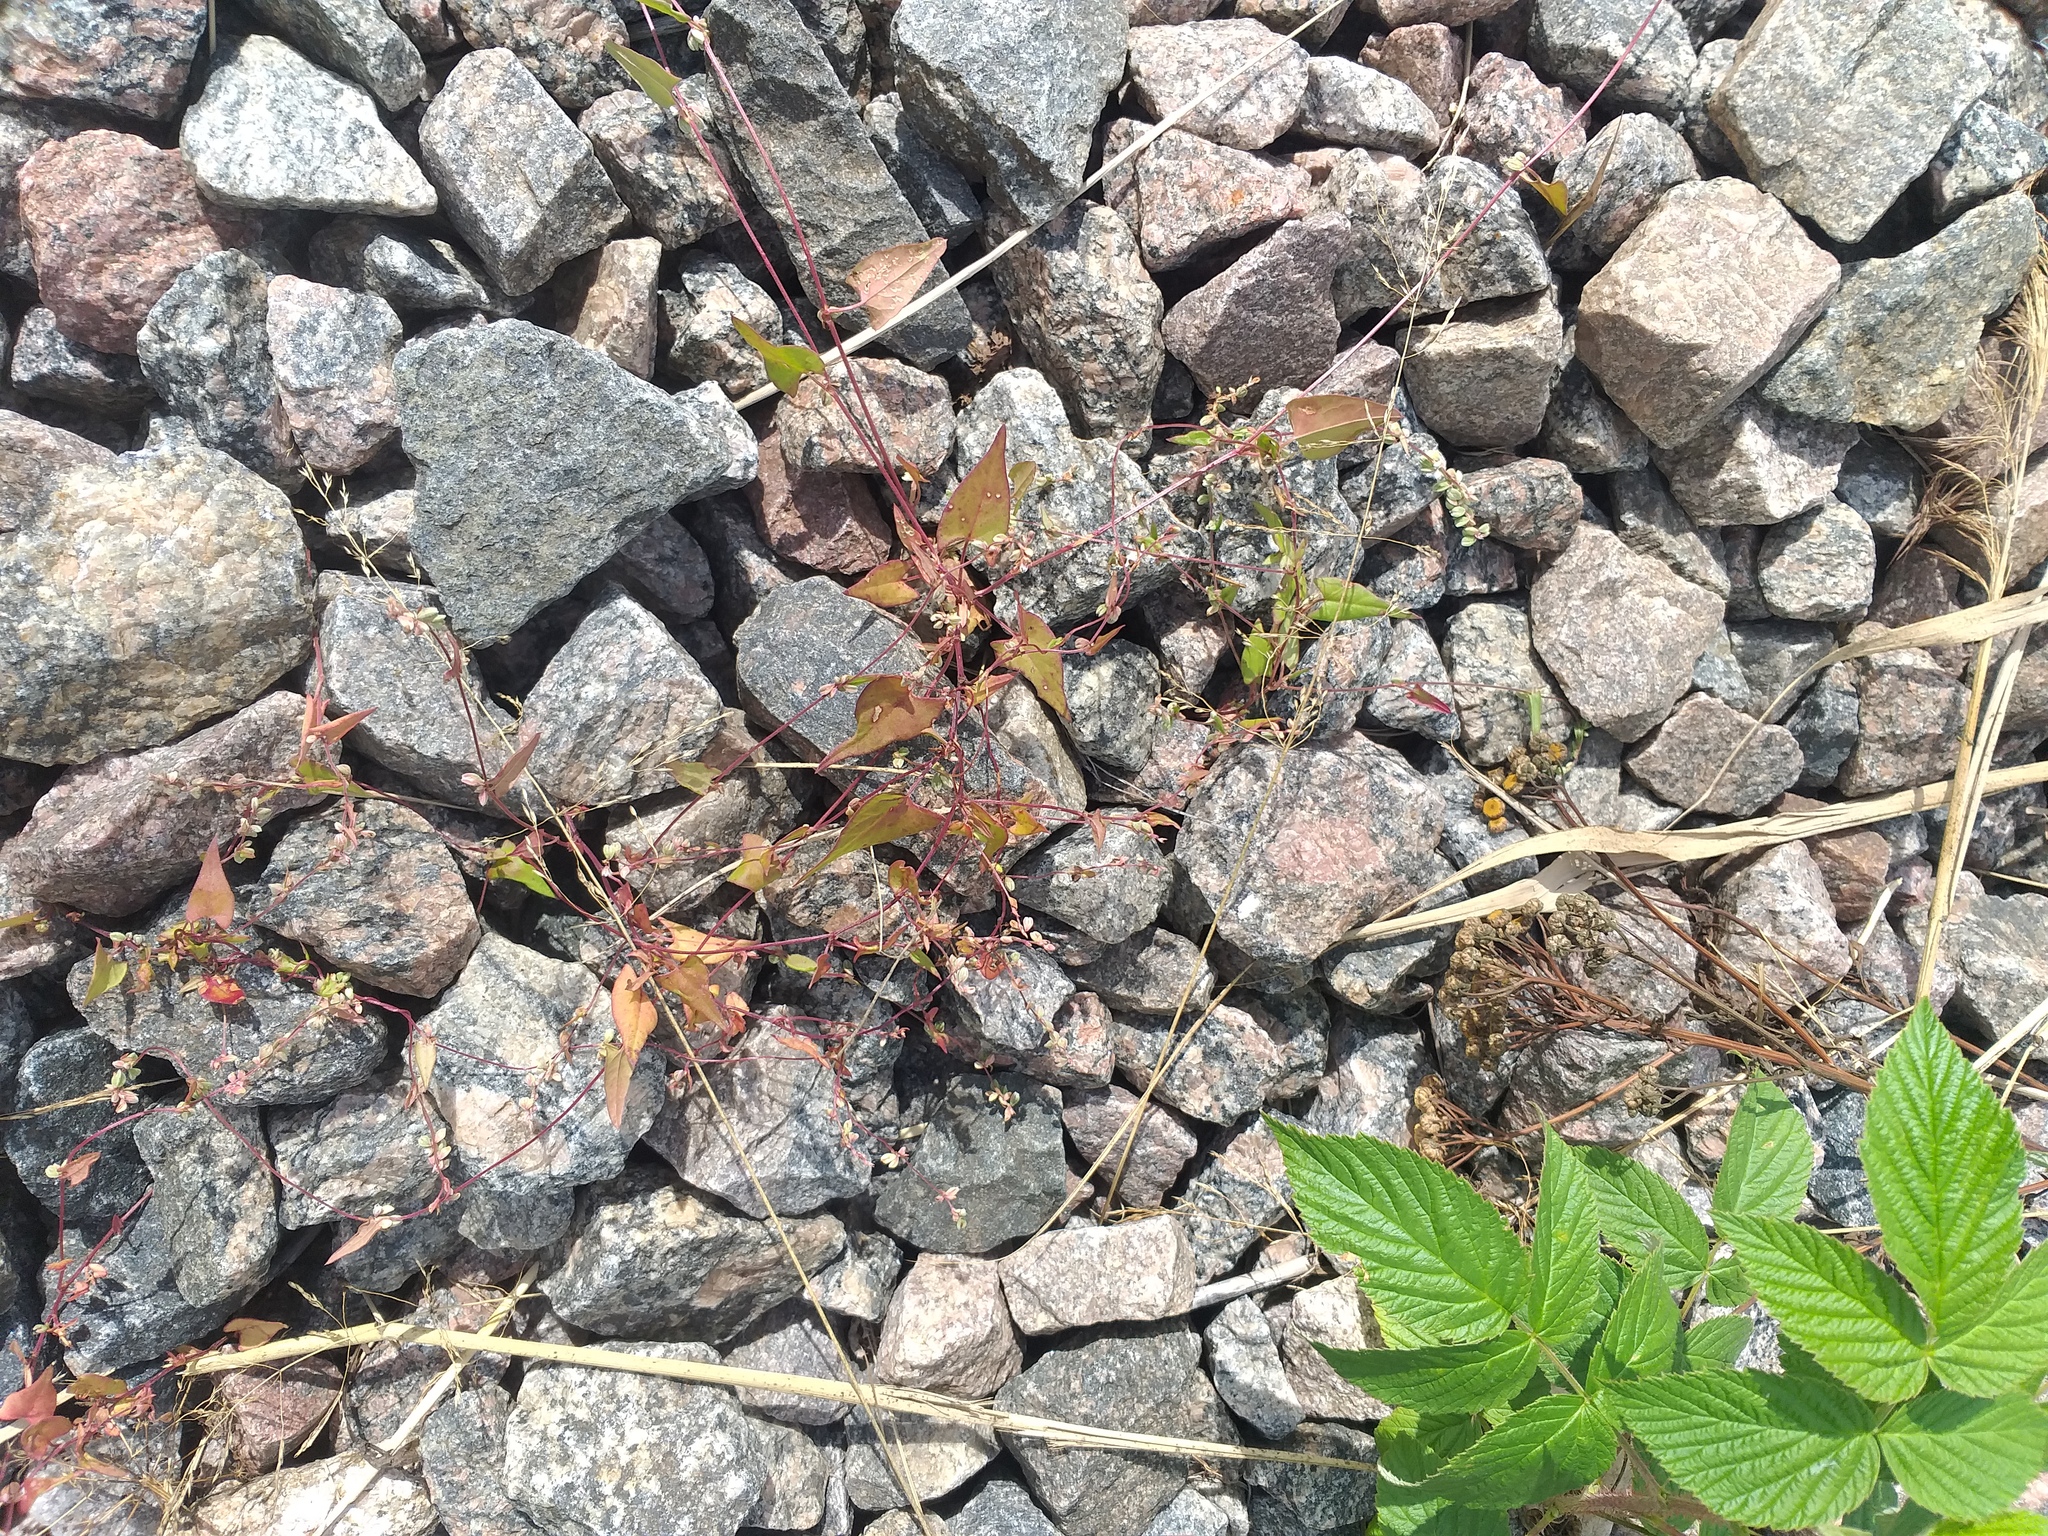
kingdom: Plantae
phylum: Tracheophyta
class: Magnoliopsida
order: Caryophyllales
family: Polygonaceae
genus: Fallopia
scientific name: Fallopia convolvulus
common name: Black bindweed
